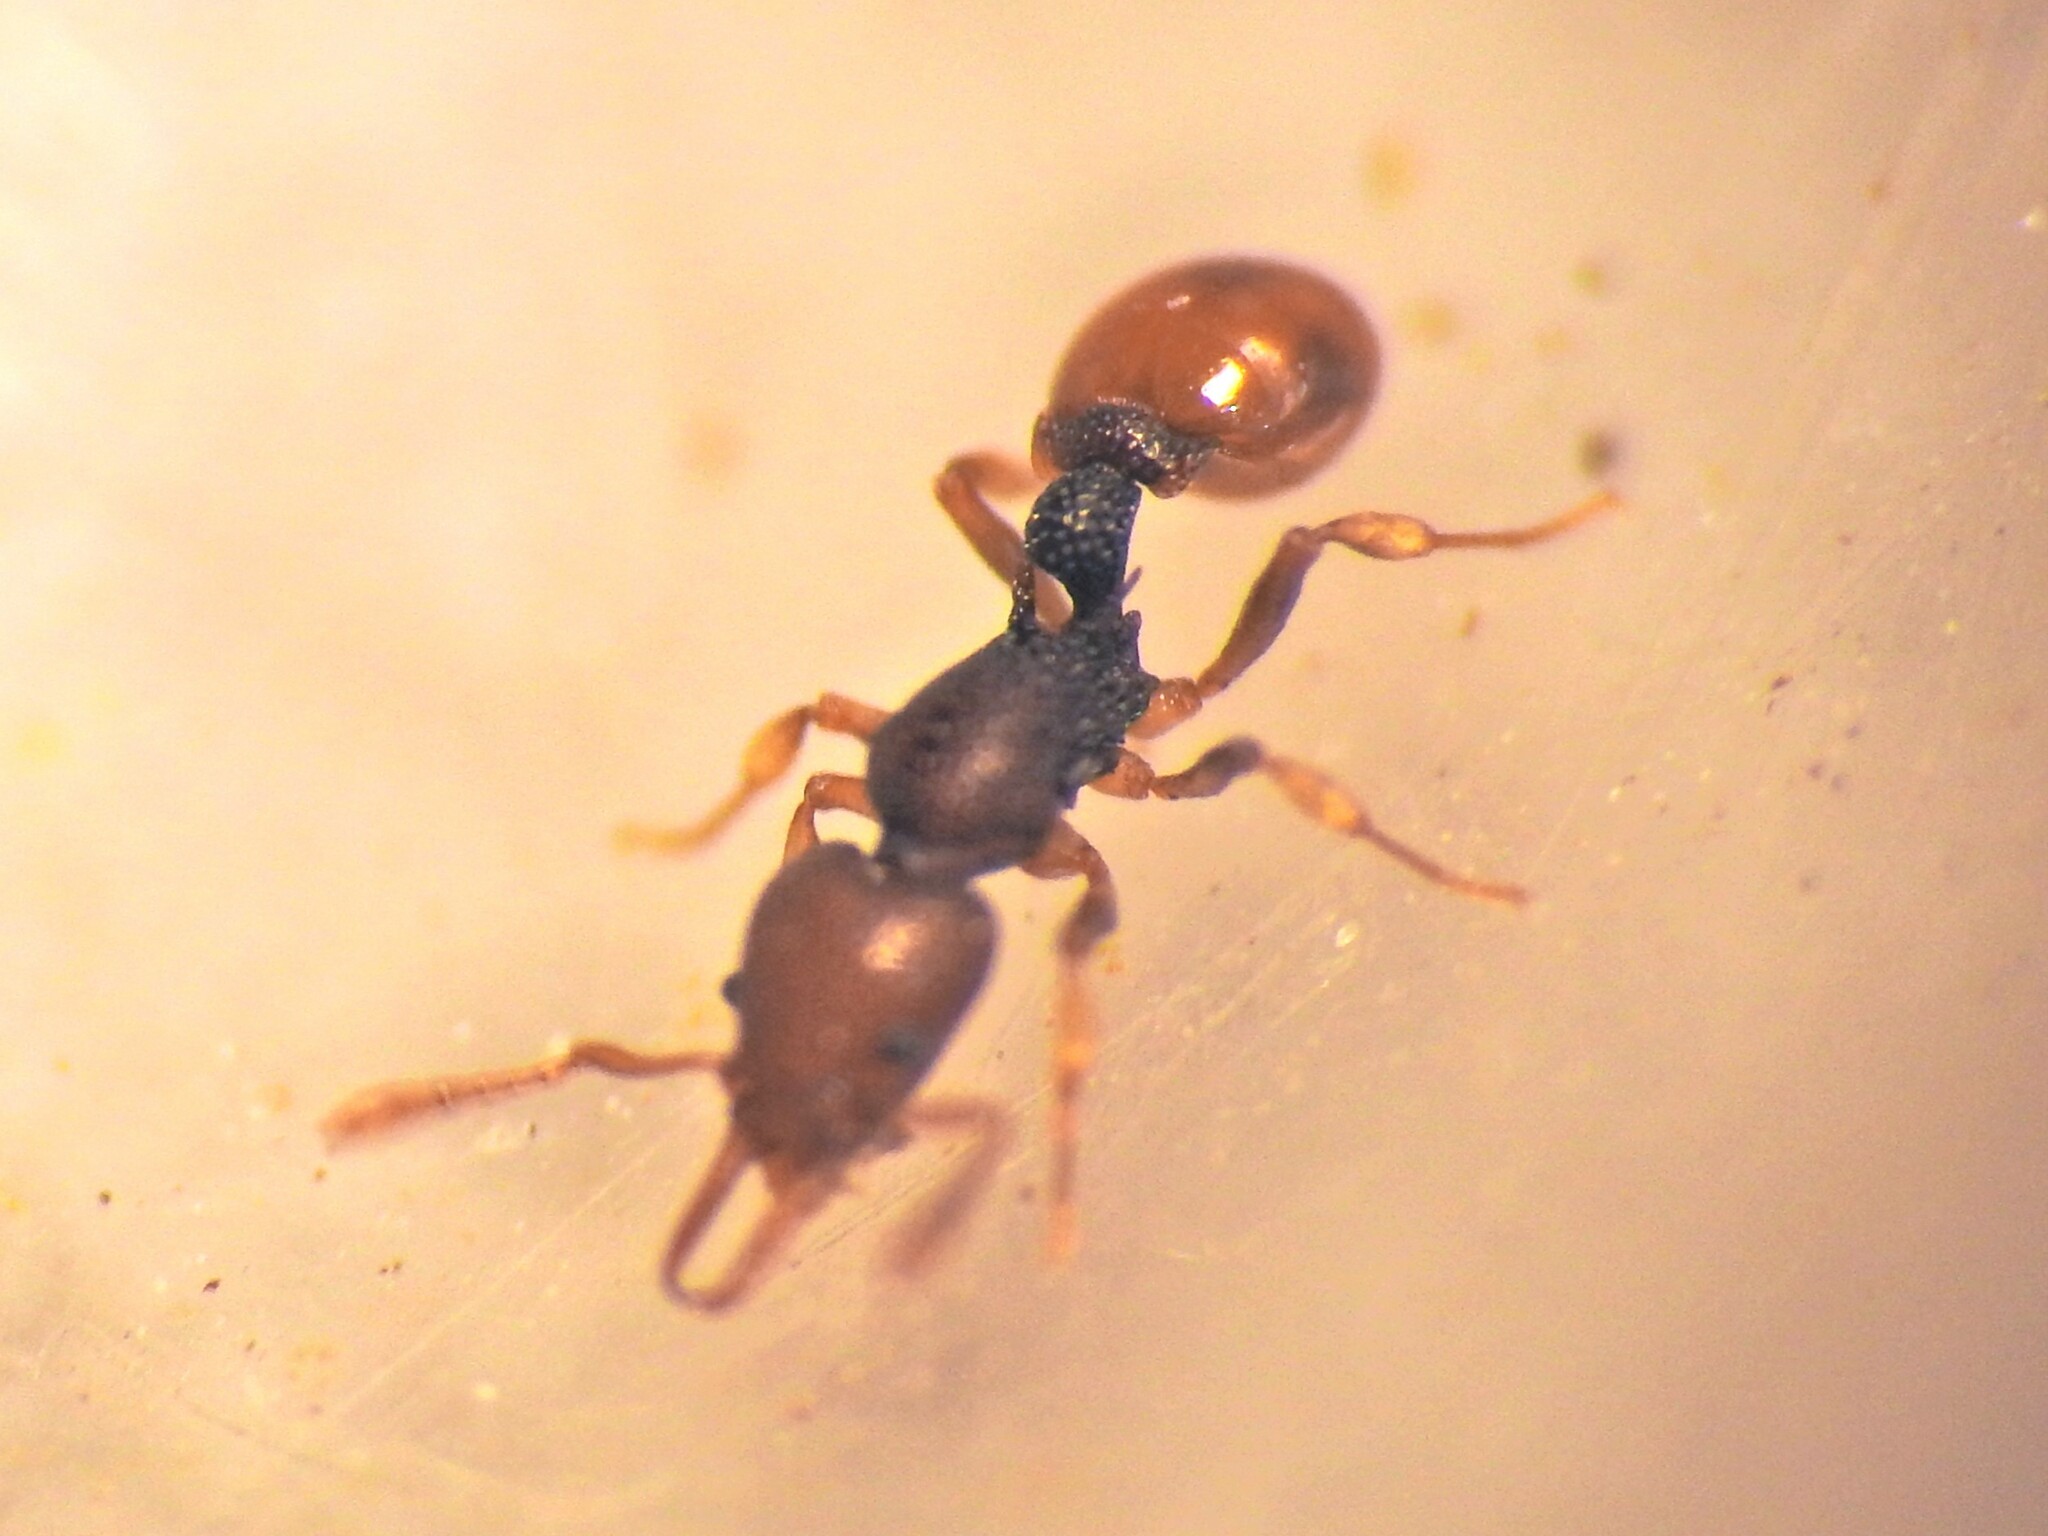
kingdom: Animalia
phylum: Arthropoda
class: Insecta
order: Hymenoptera
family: Formicidae
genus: Epopostruma
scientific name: Epopostruma
